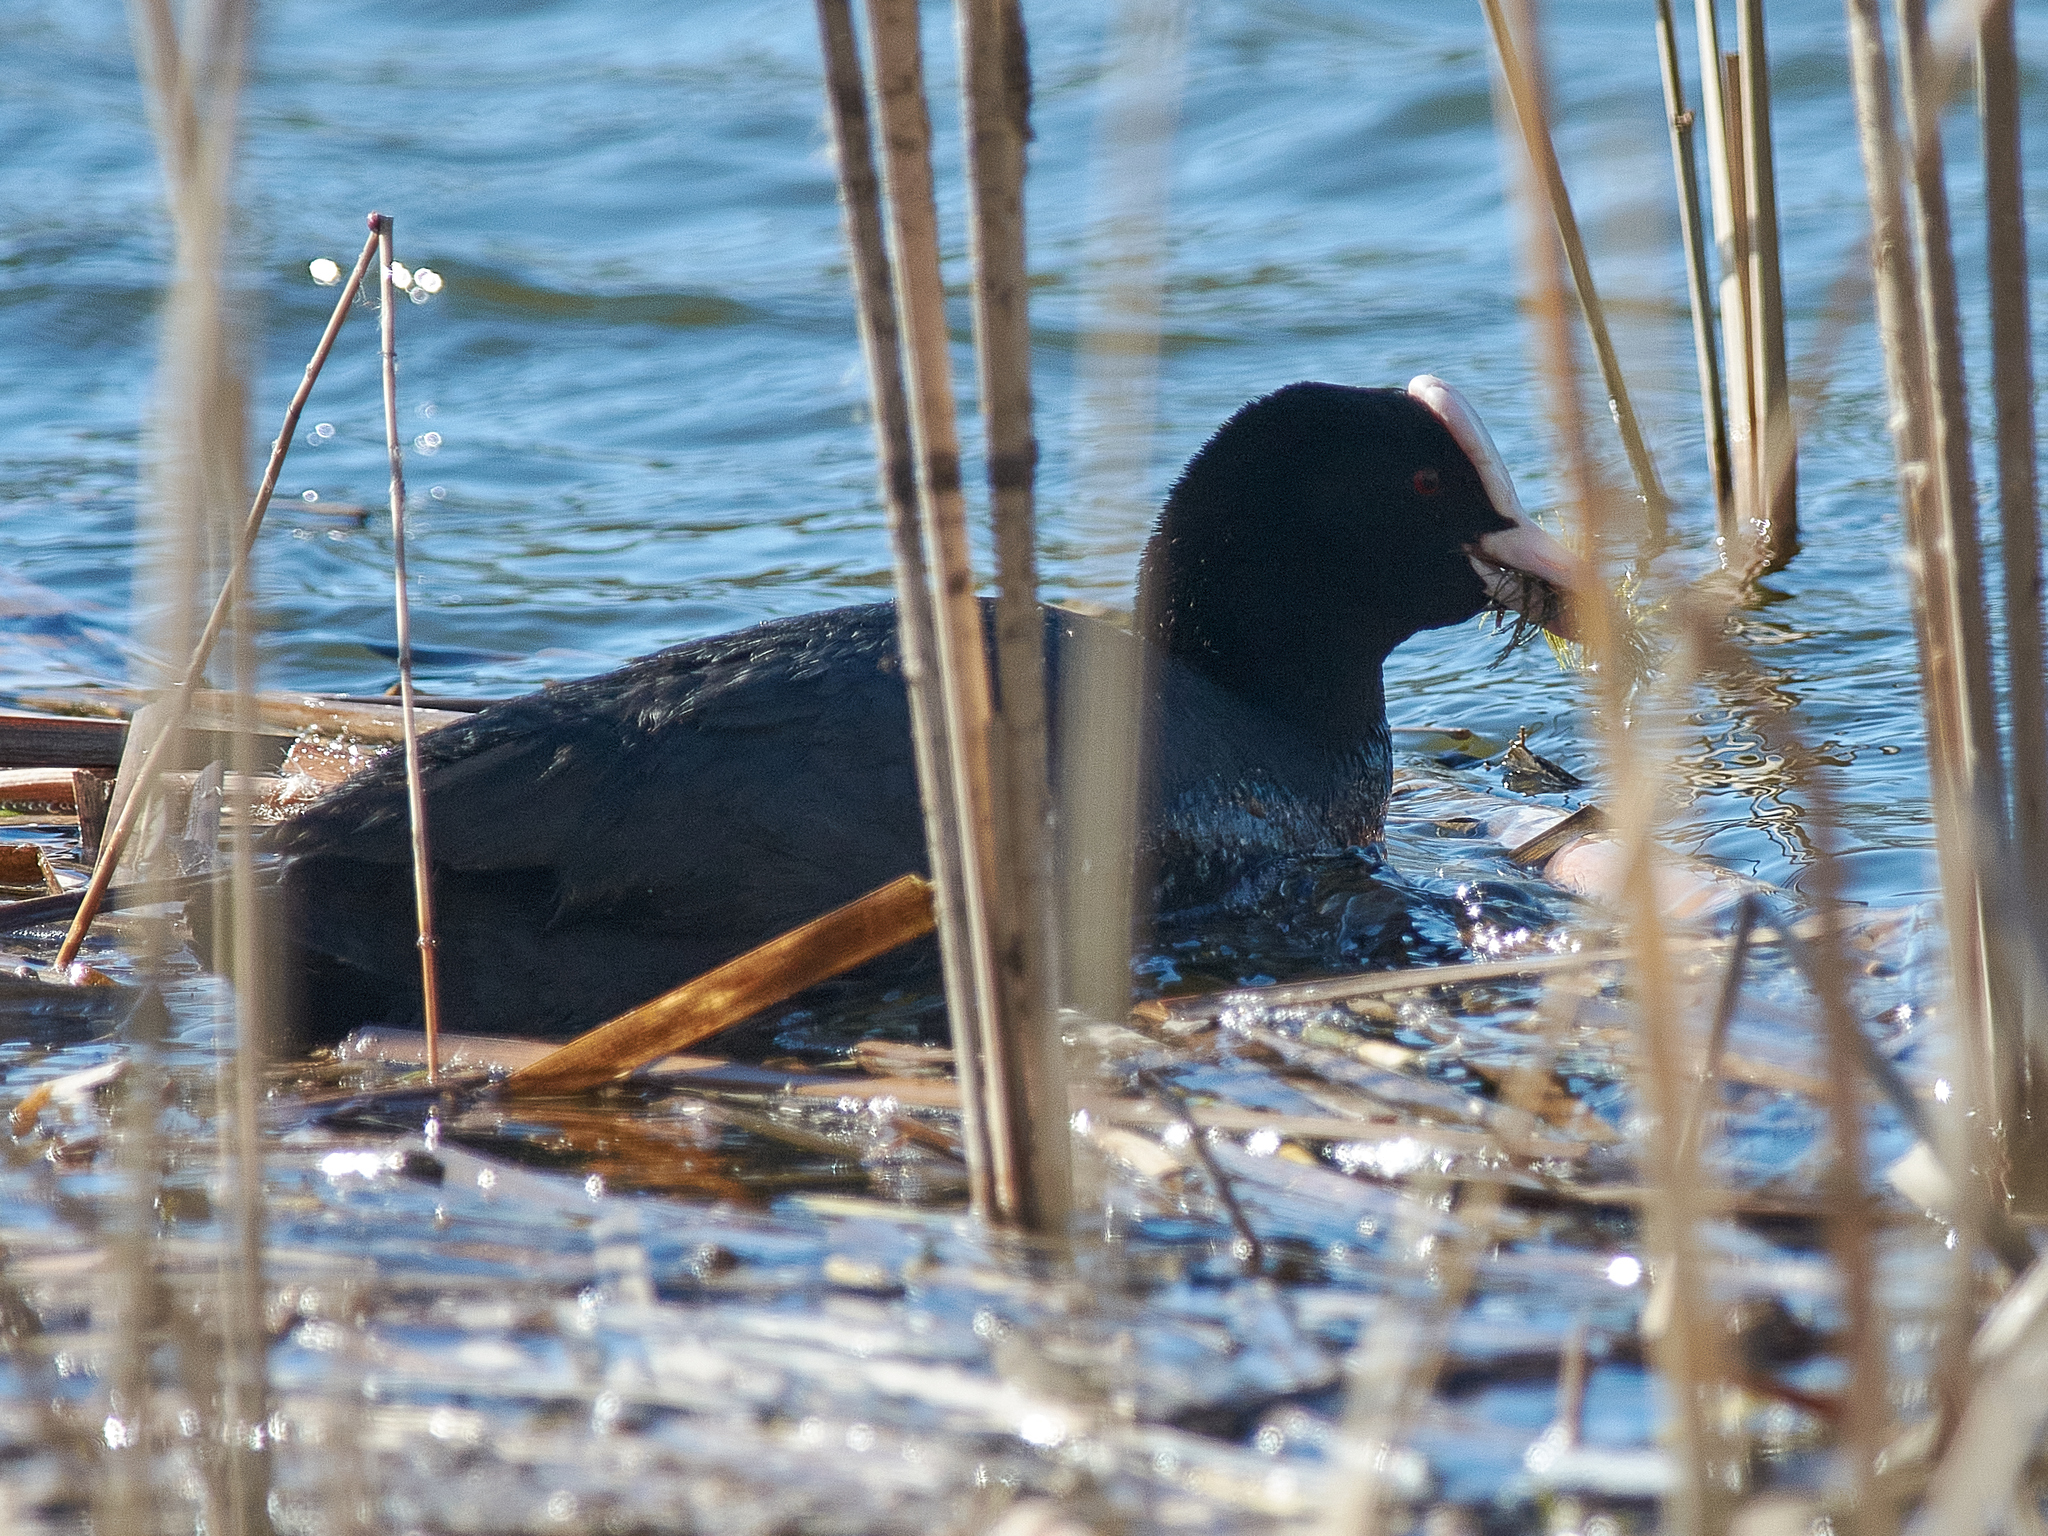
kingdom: Animalia
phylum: Chordata
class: Aves
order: Gruiformes
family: Rallidae
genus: Fulica
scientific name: Fulica atra
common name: Eurasian coot
